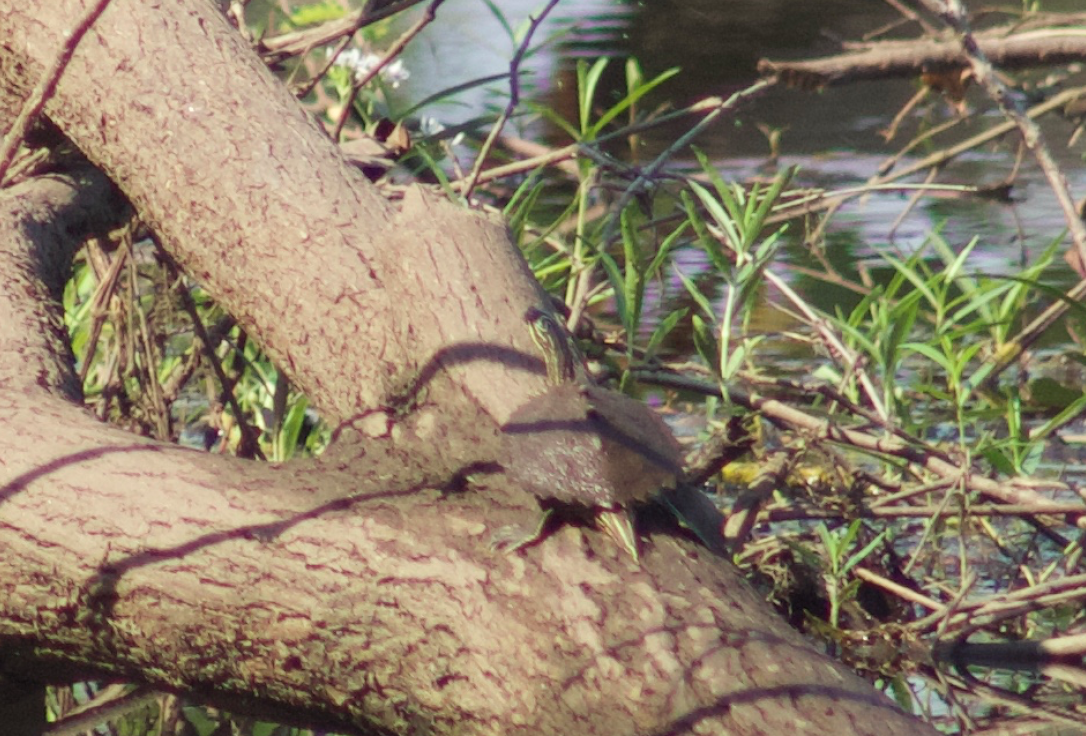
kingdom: Animalia
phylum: Chordata
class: Testudines
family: Emydidae
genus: Graptemys
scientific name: Graptemys nigrinoda
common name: Black-knobbed map turtle
